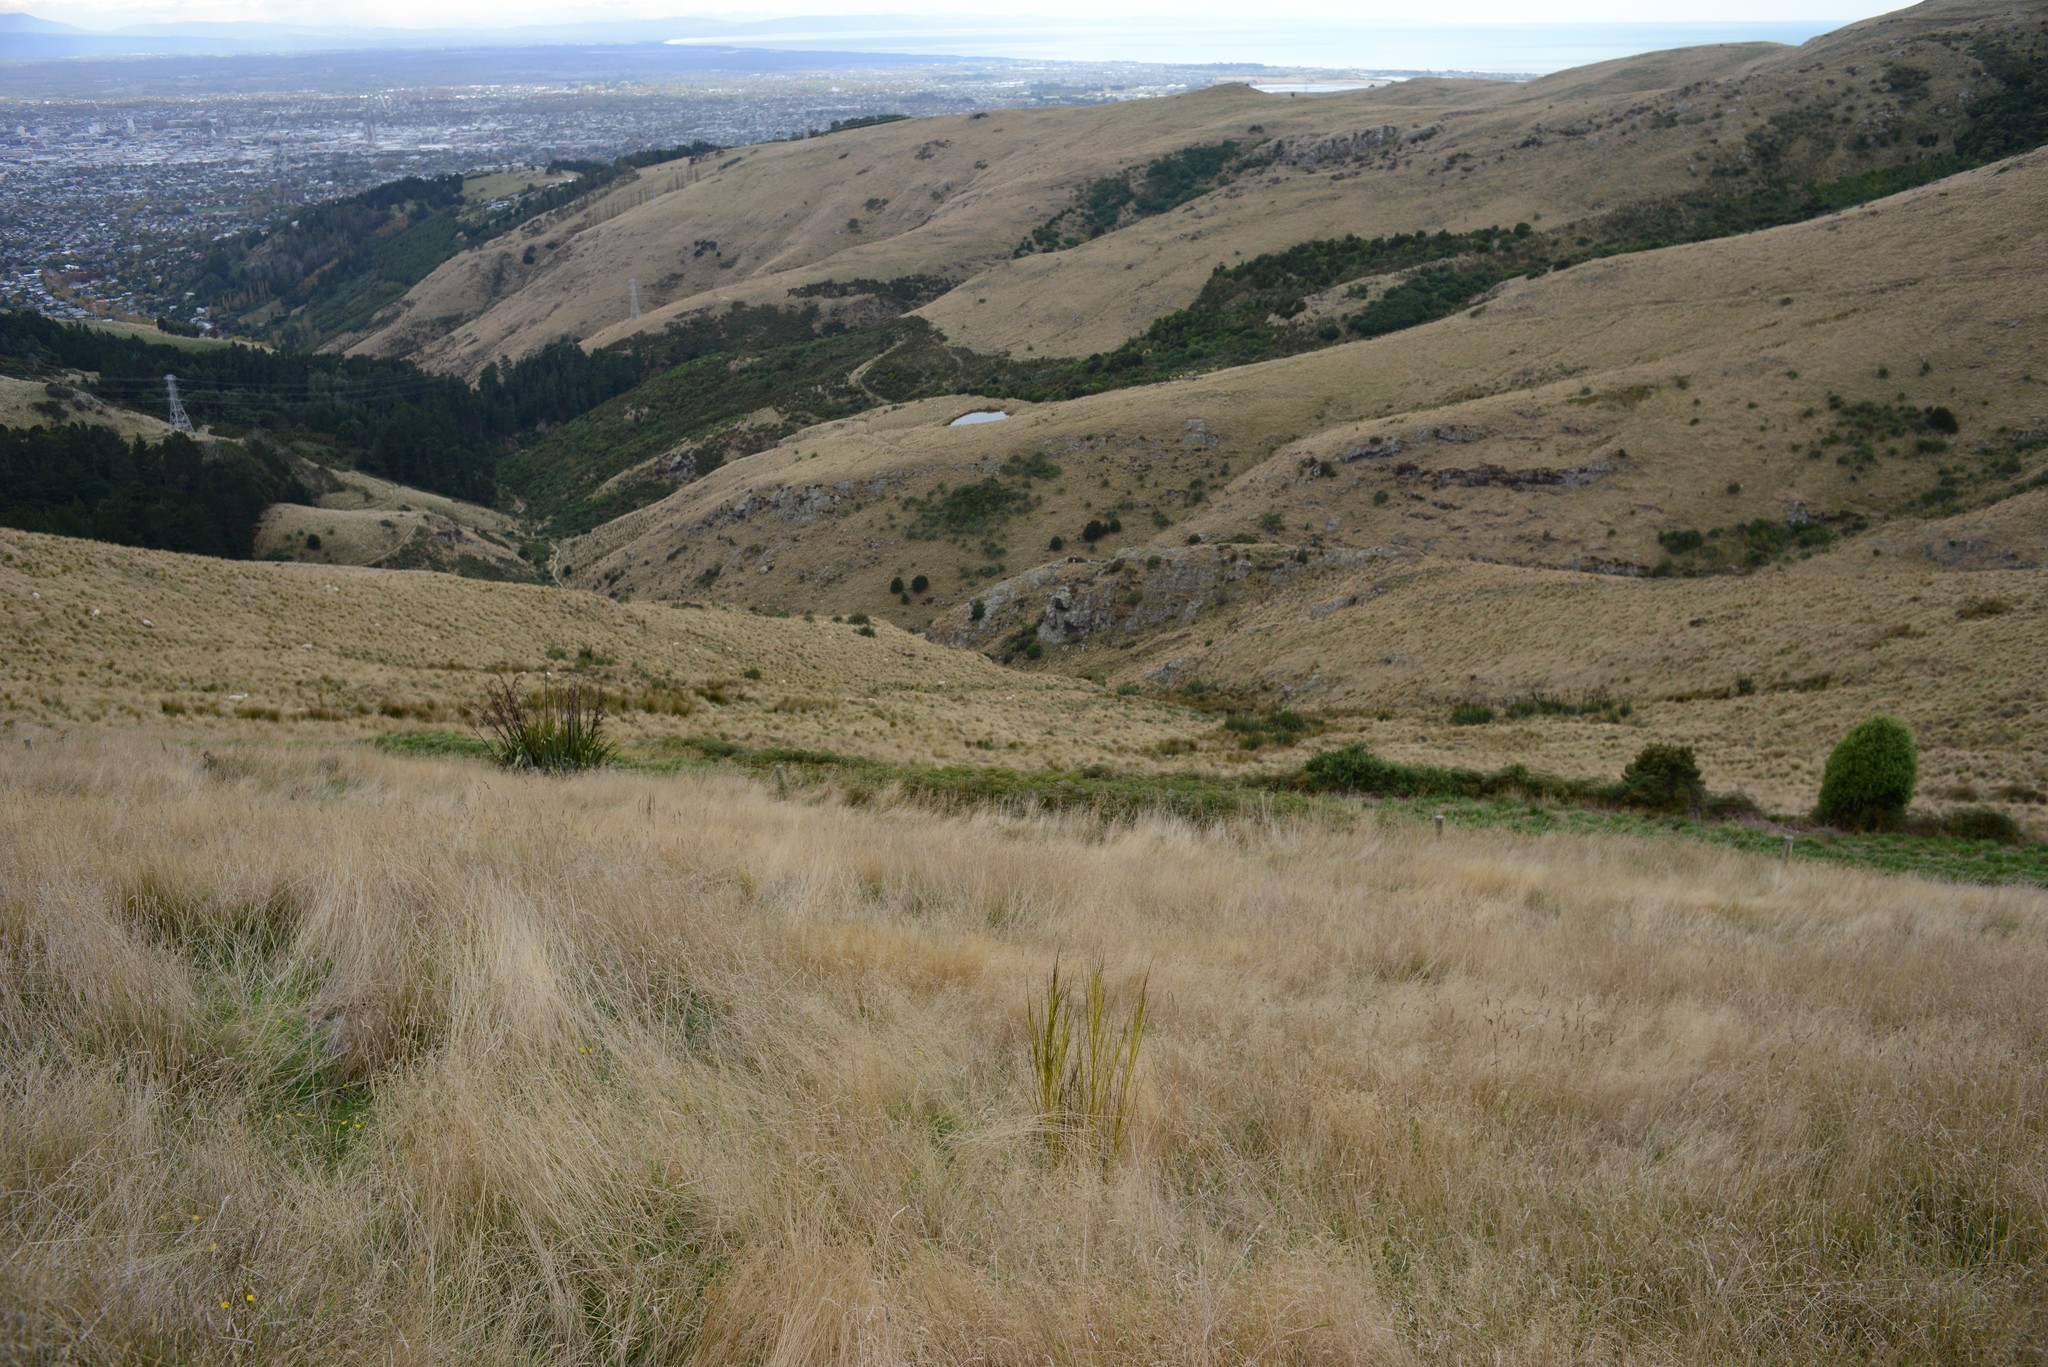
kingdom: Plantae
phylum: Tracheophyta
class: Magnoliopsida
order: Fabales
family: Fabaceae
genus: Cytisus
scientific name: Cytisus scoparius
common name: Scotch broom
